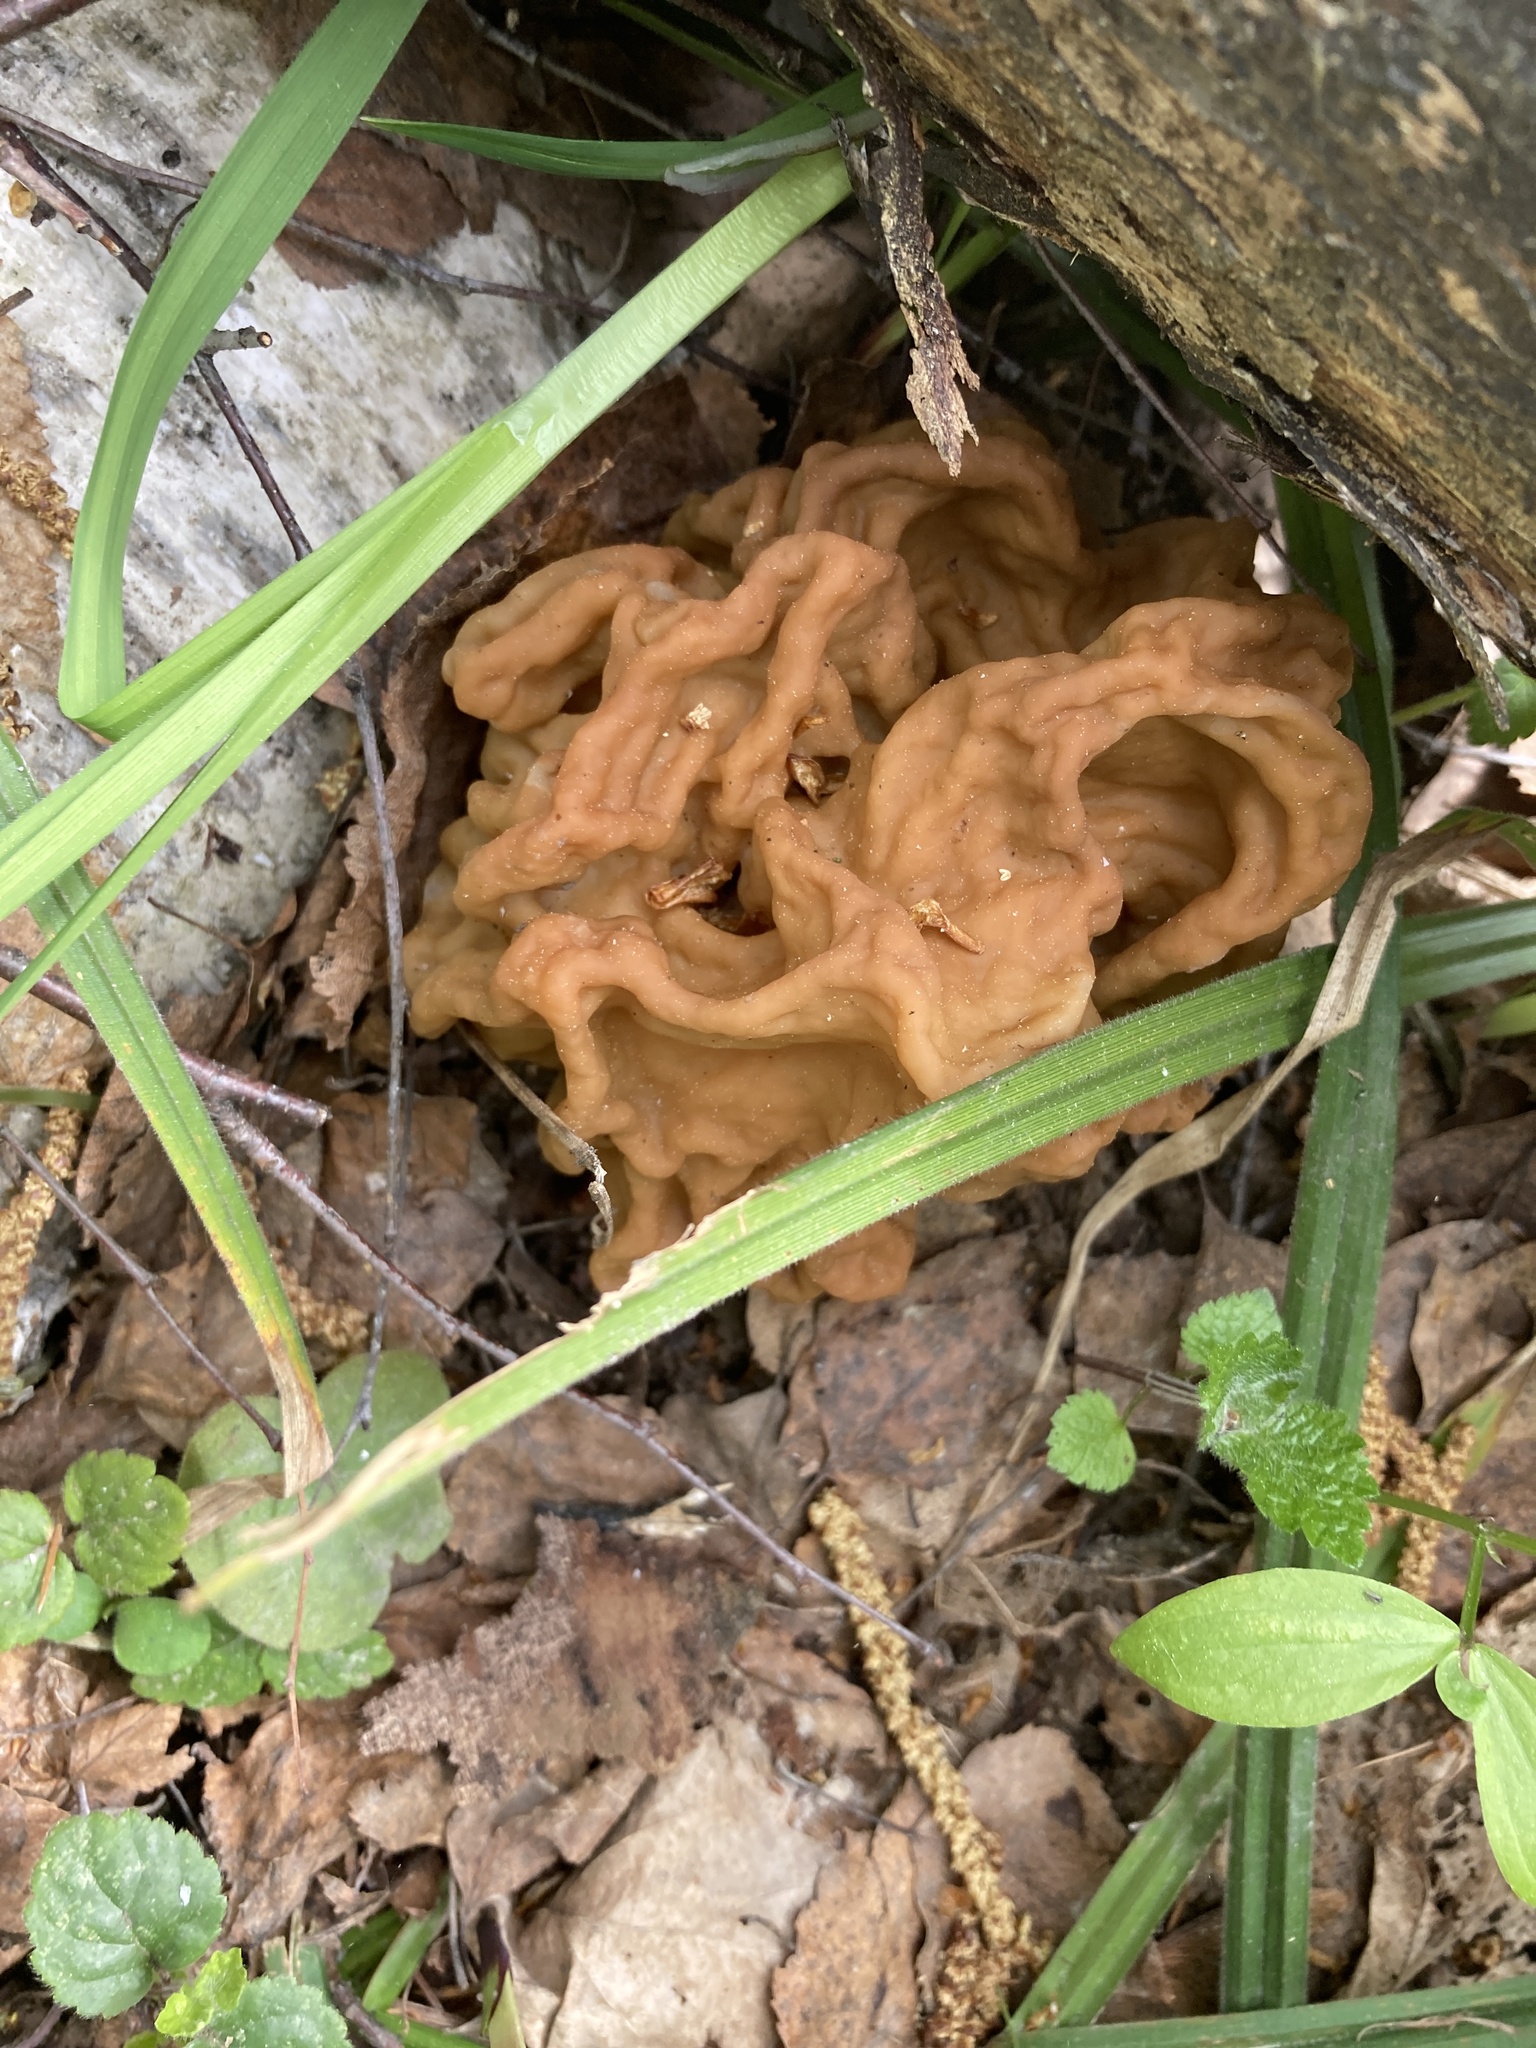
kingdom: Fungi
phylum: Ascomycota
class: Pezizomycetes
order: Pezizales
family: Discinaceae
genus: Gyromitra
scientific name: Gyromitra gigas
